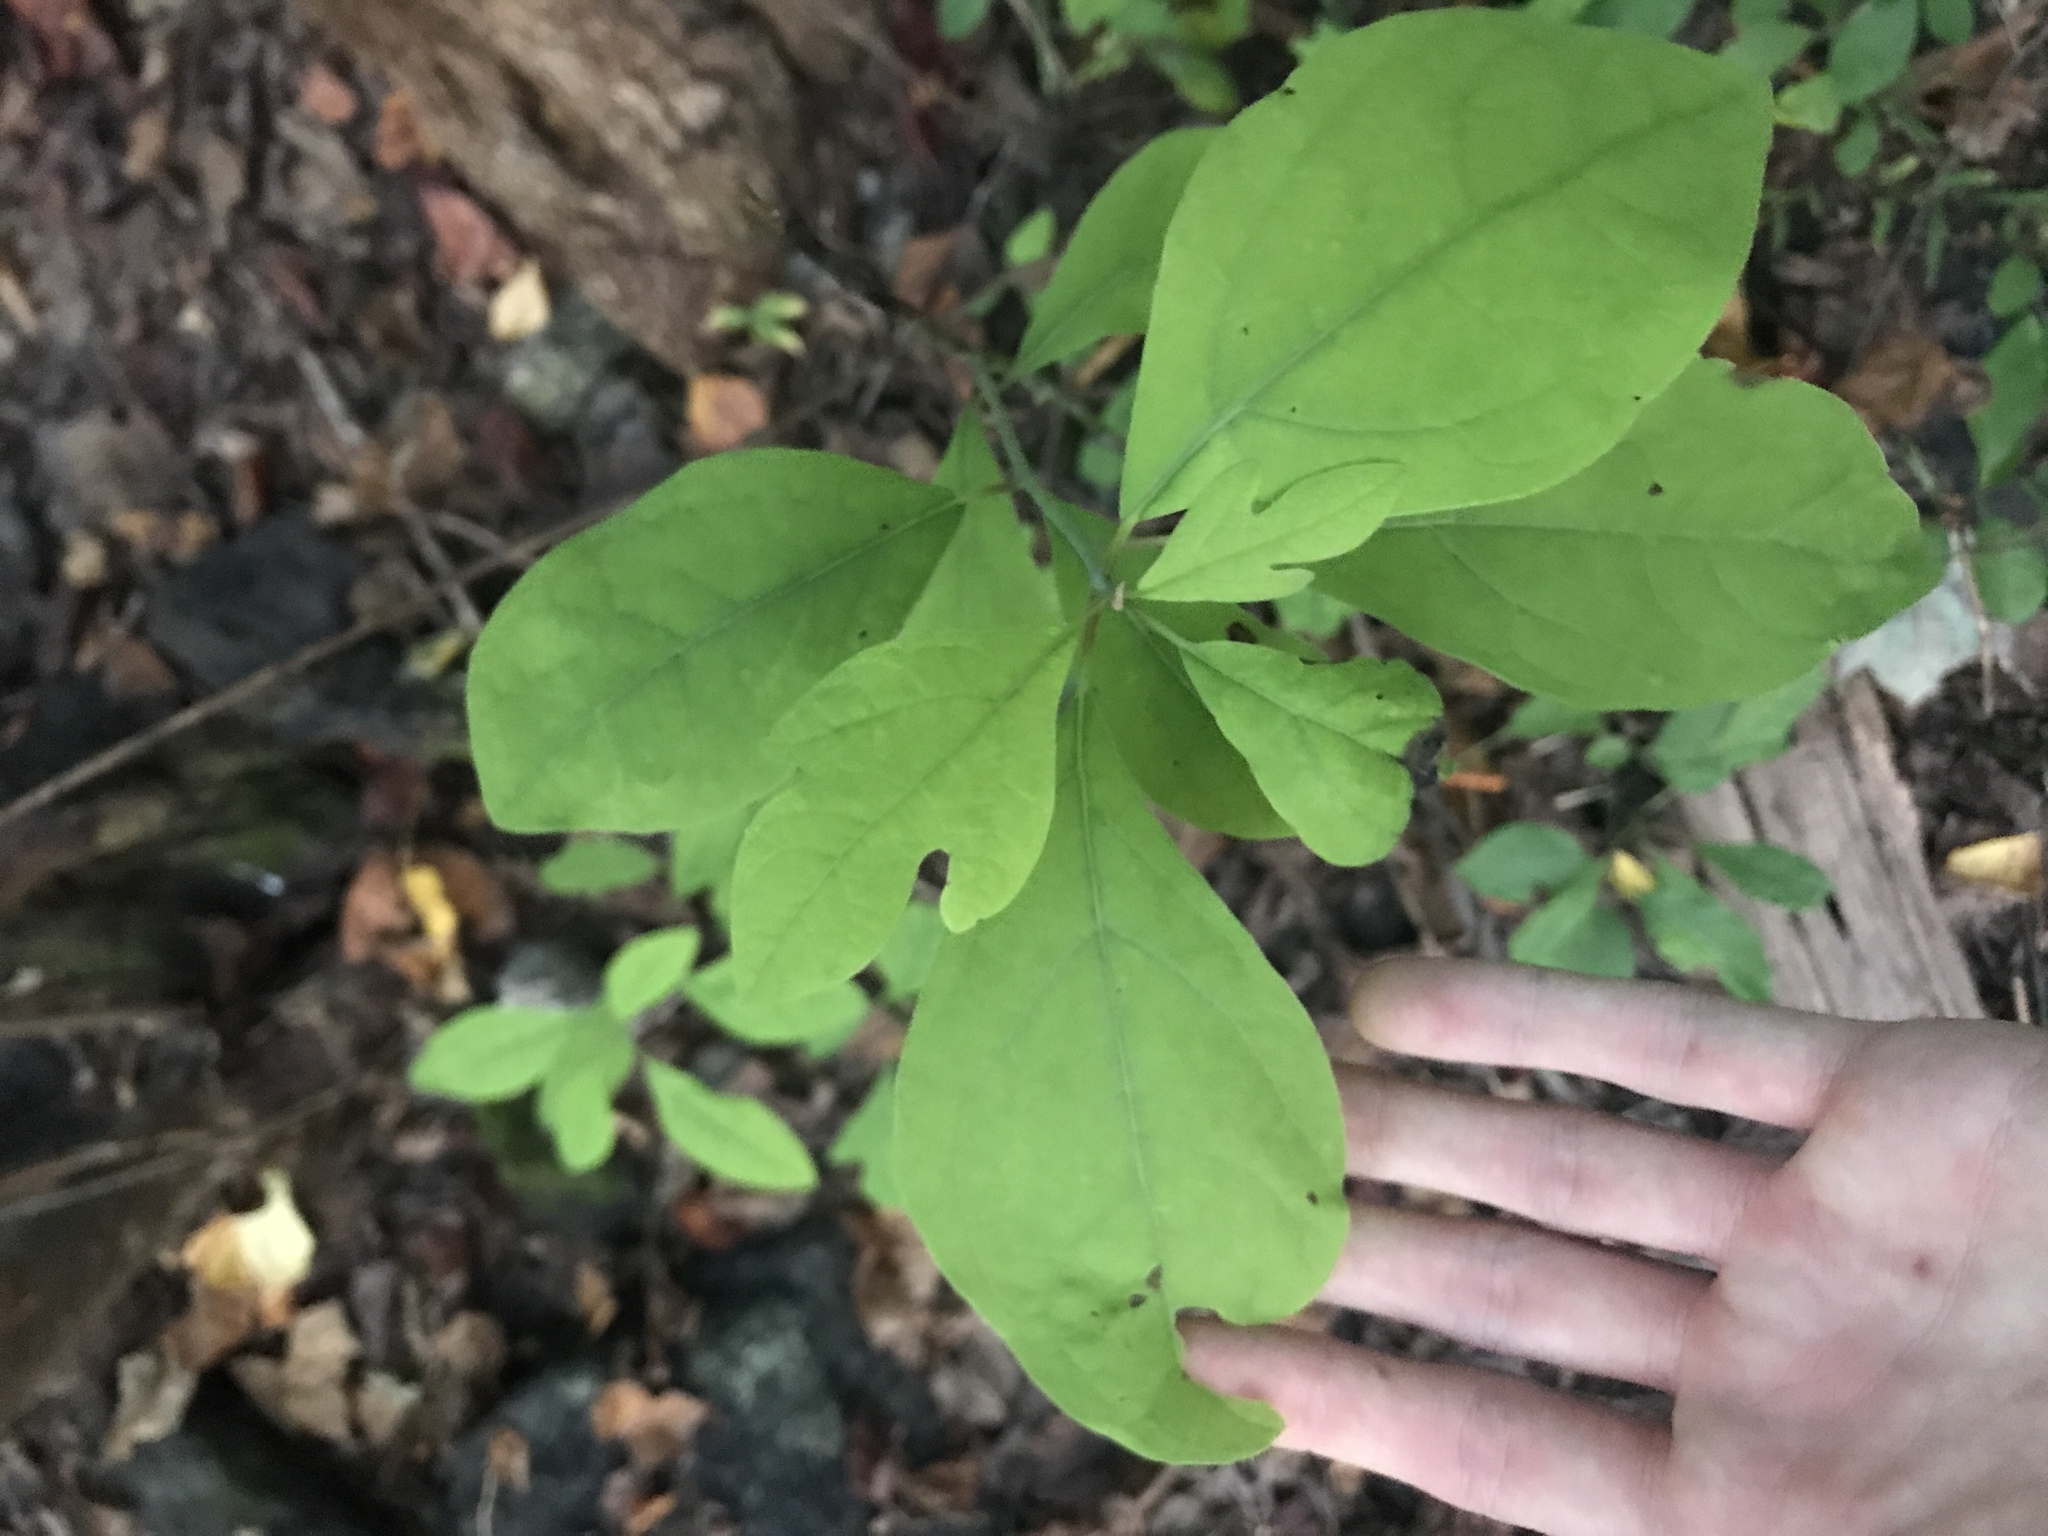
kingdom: Plantae
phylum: Tracheophyta
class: Magnoliopsida
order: Laurales
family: Lauraceae
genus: Sassafras
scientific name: Sassafras albidum
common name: Sassafras
